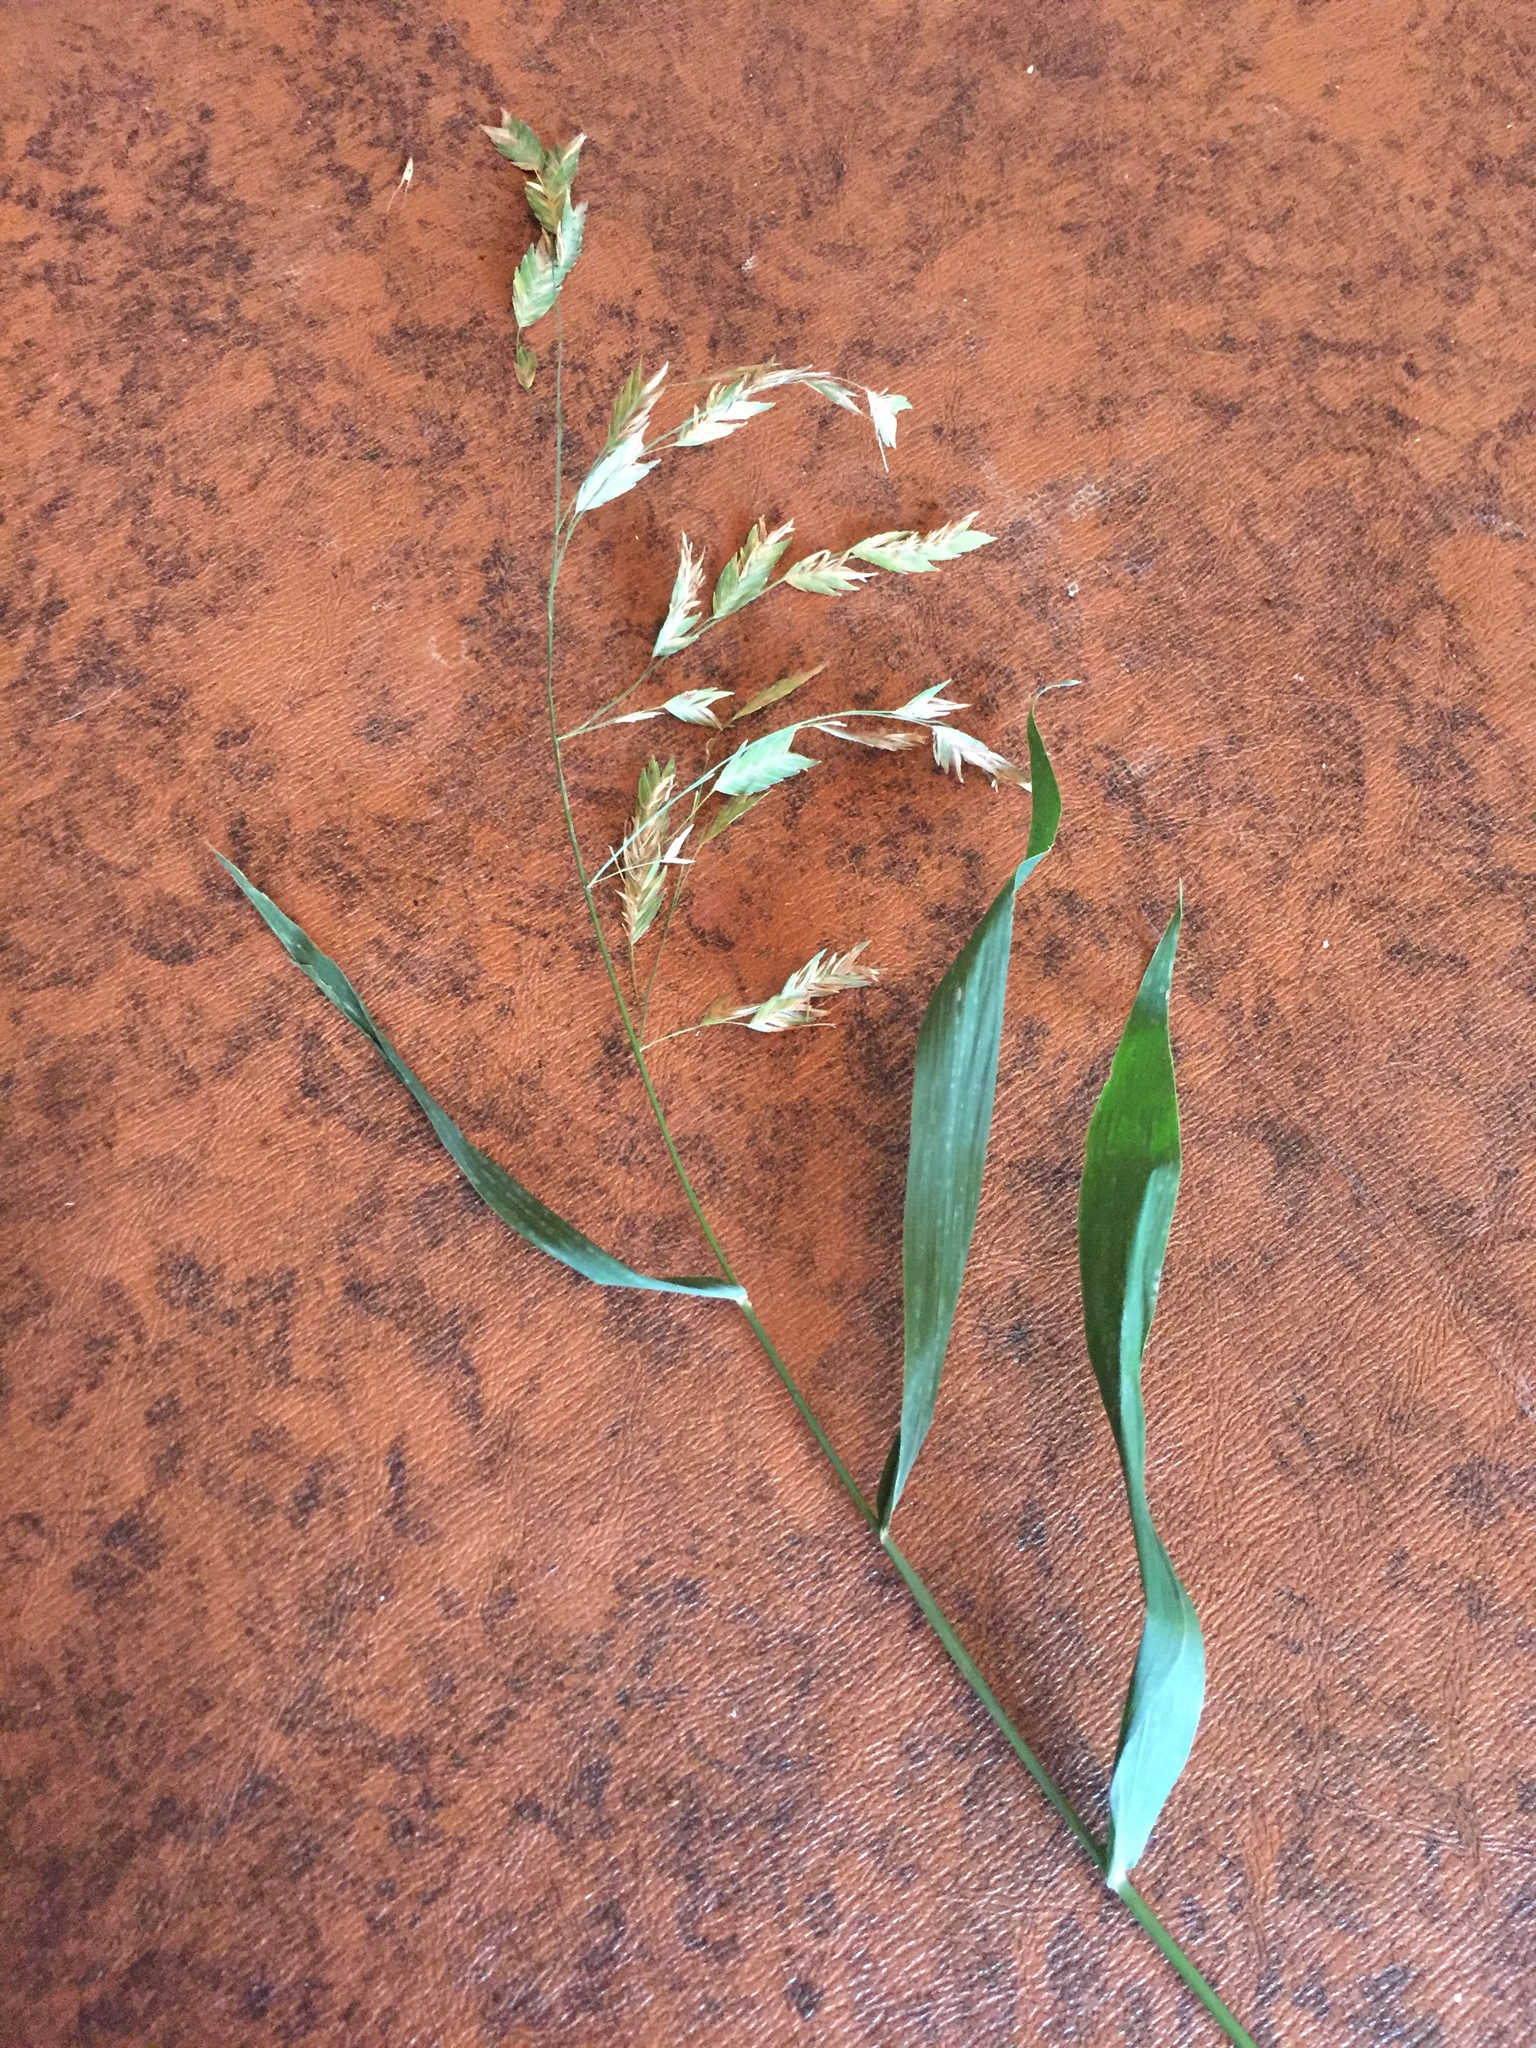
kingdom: Plantae
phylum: Tracheophyta
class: Liliopsida
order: Poales
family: Poaceae
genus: Chasmanthium
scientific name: Chasmanthium latifolium
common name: Broad-leaved chasmanthium
